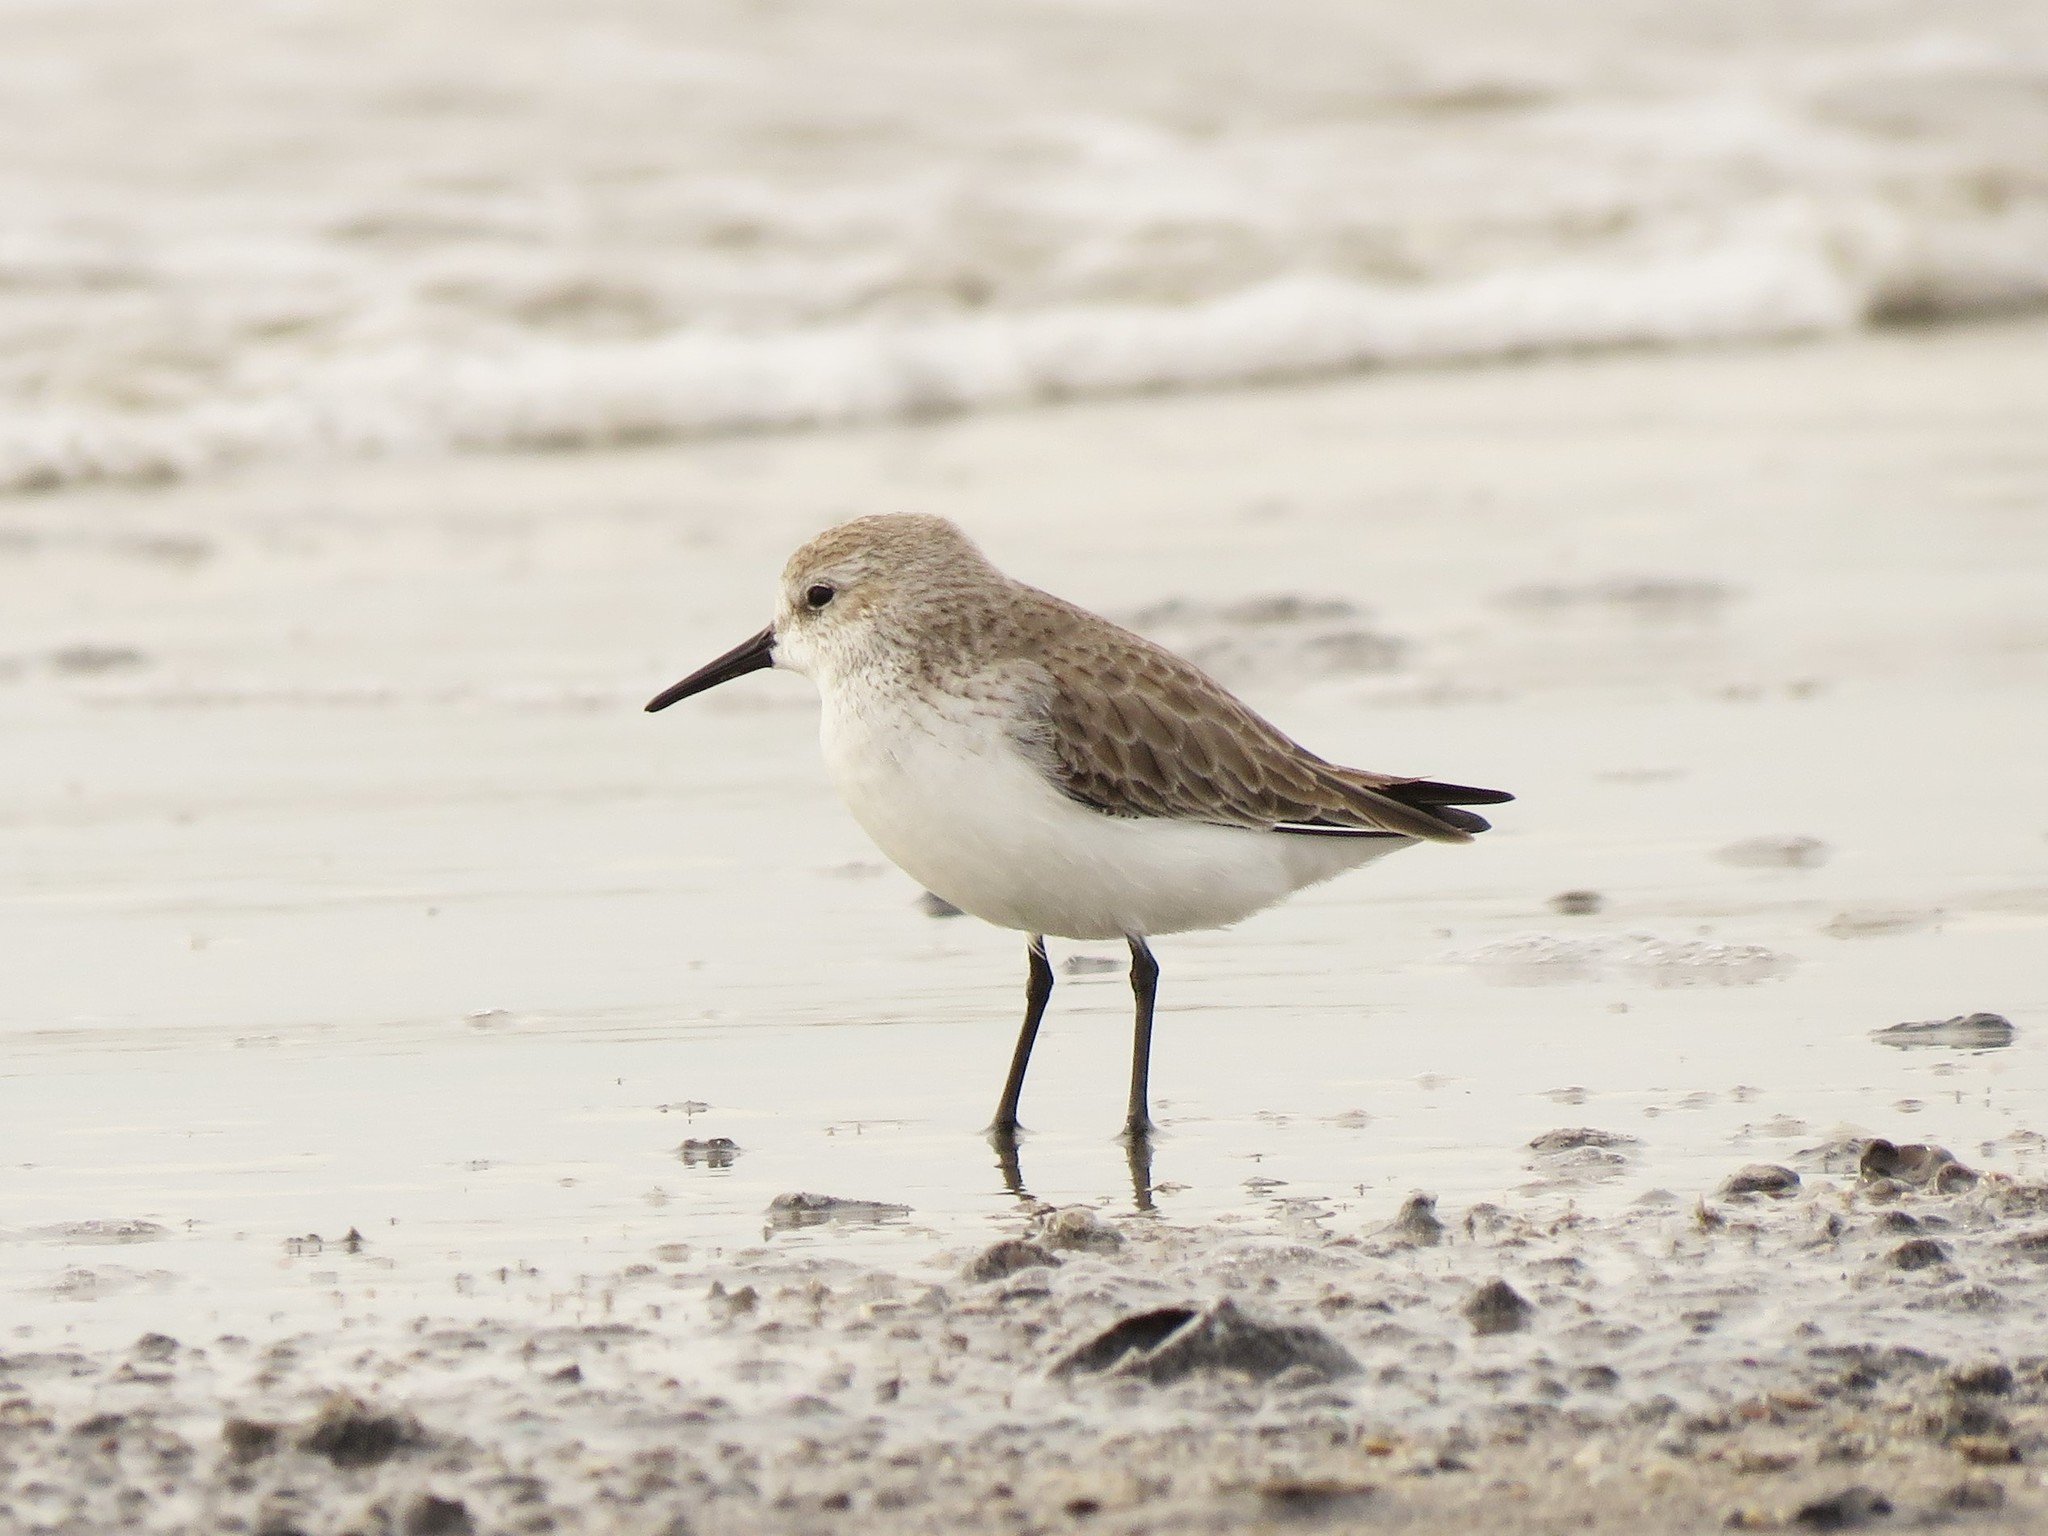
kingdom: Animalia
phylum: Chordata
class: Aves
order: Charadriiformes
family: Scolopacidae
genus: Calidris
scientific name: Calidris mauri
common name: Western sandpiper
